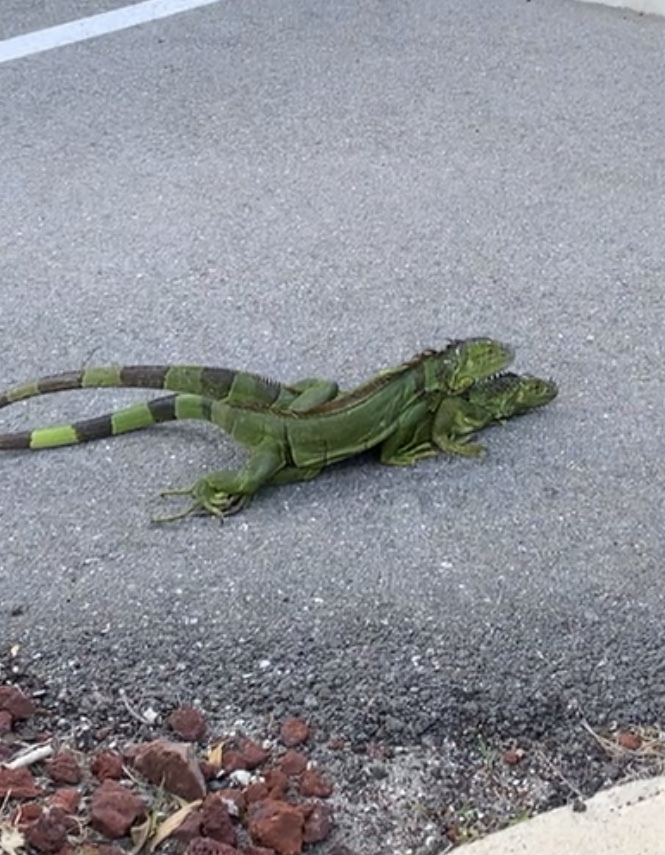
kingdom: Animalia
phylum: Chordata
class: Squamata
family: Iguanidae
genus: Iguana
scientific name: Iguana iguana
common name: Green iguana
